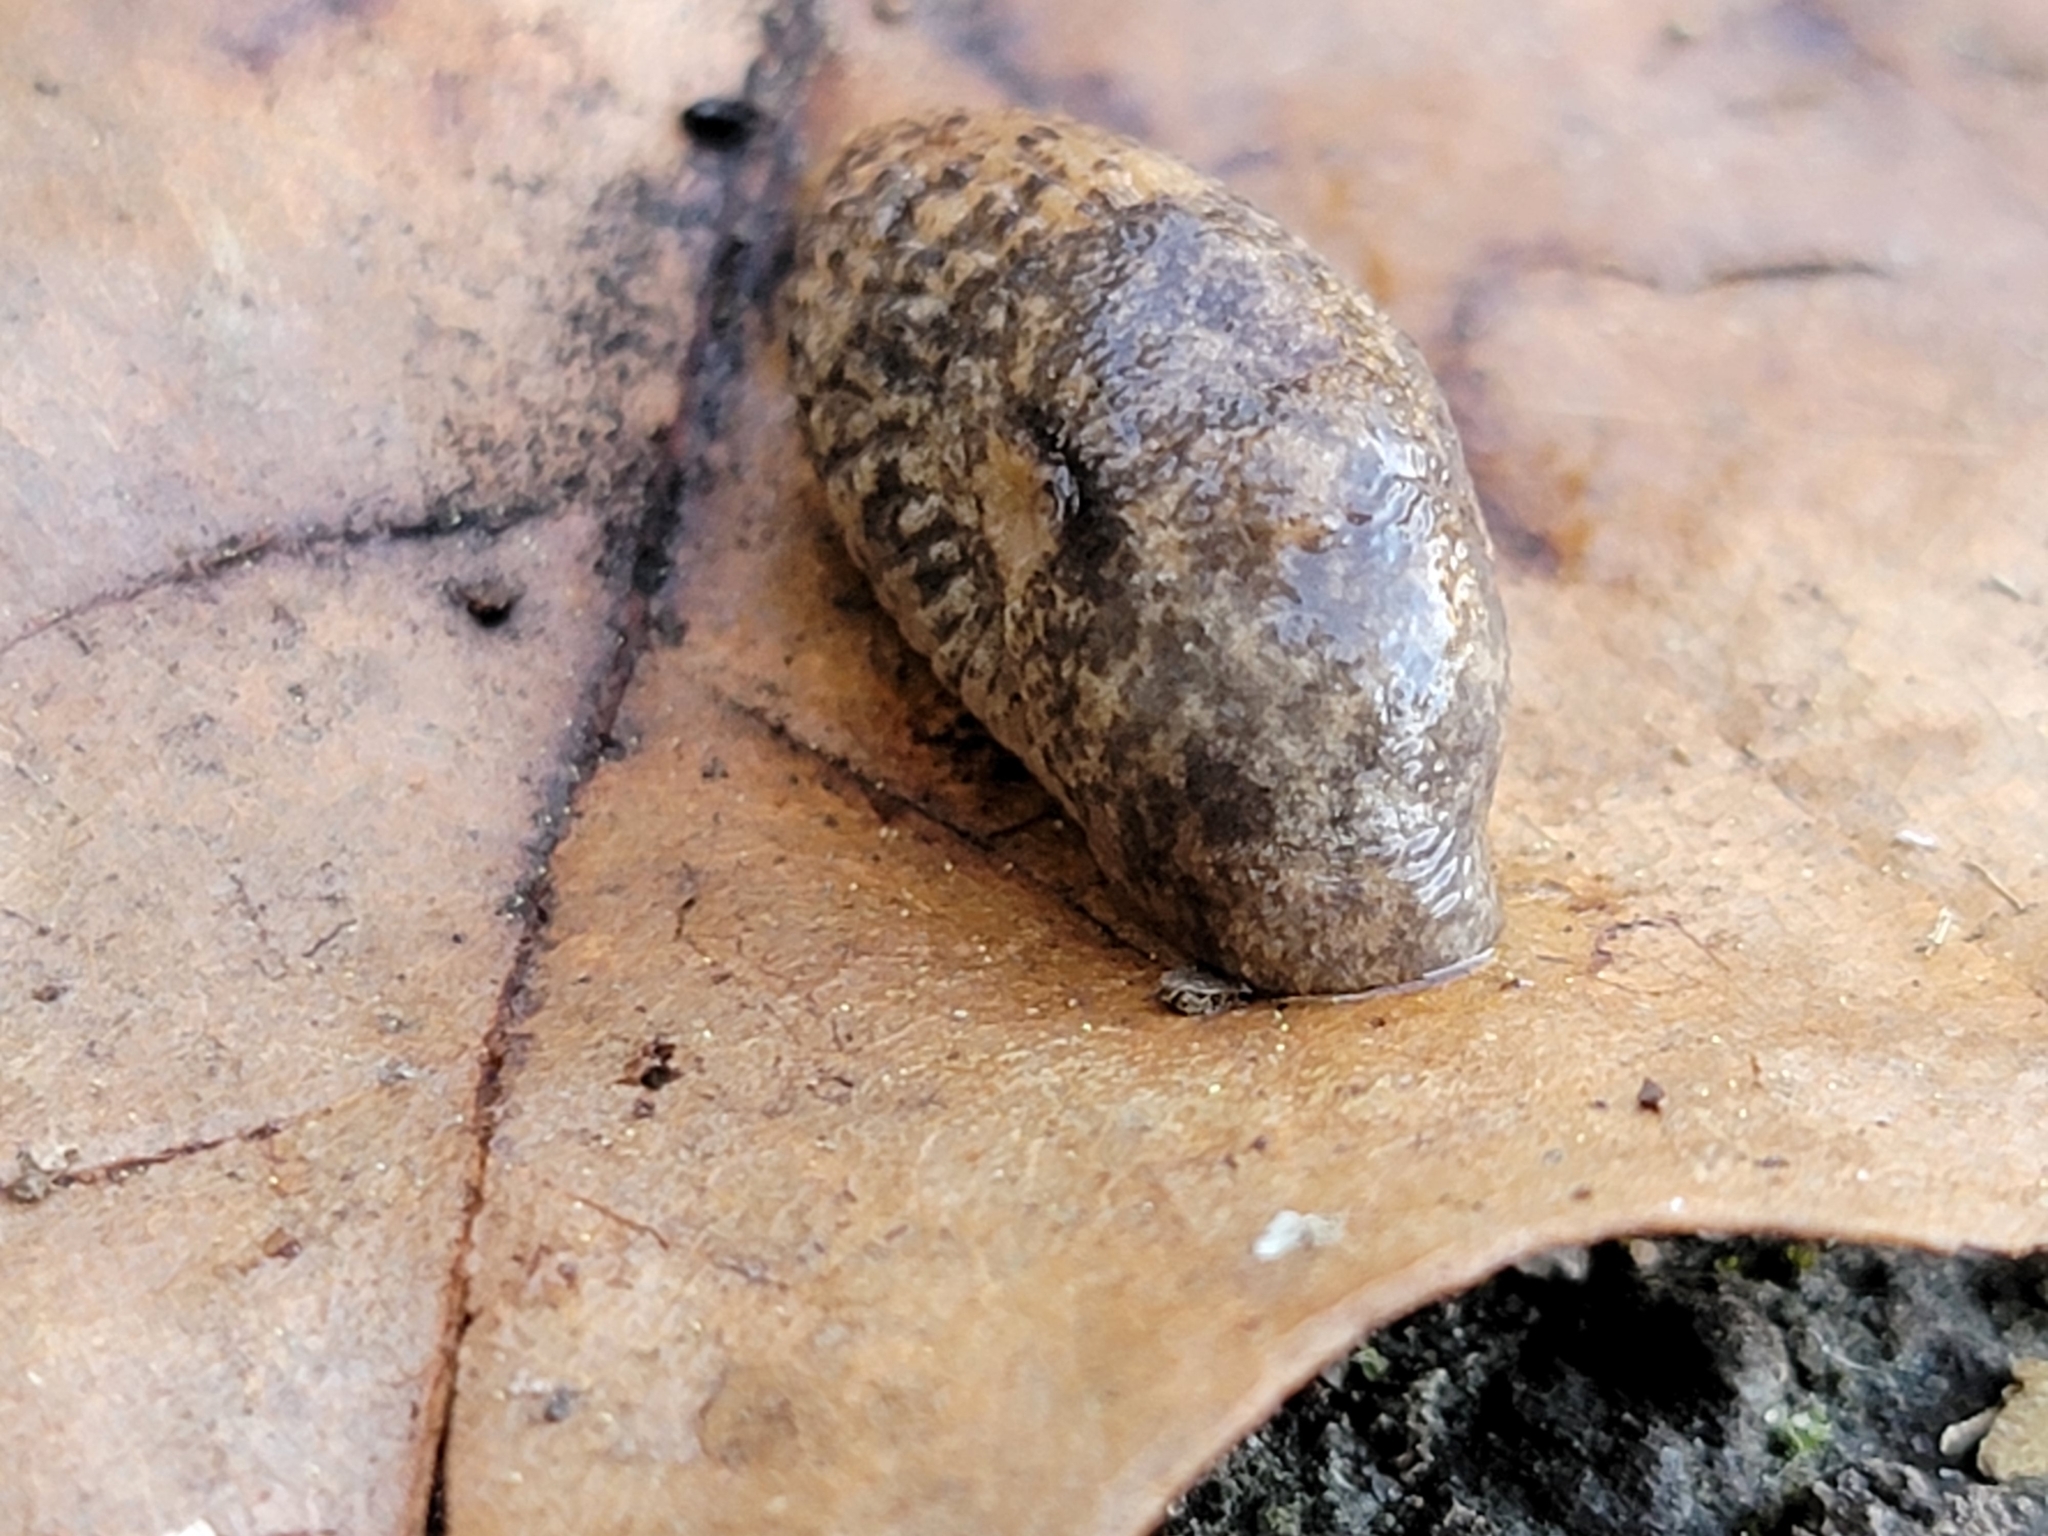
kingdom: Animalia
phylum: Mollusca
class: Gastropoda
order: Stylommatophora
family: Agriolimacidae
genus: Deroceras
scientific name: Deroceras reticulatum
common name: Gray field slug
